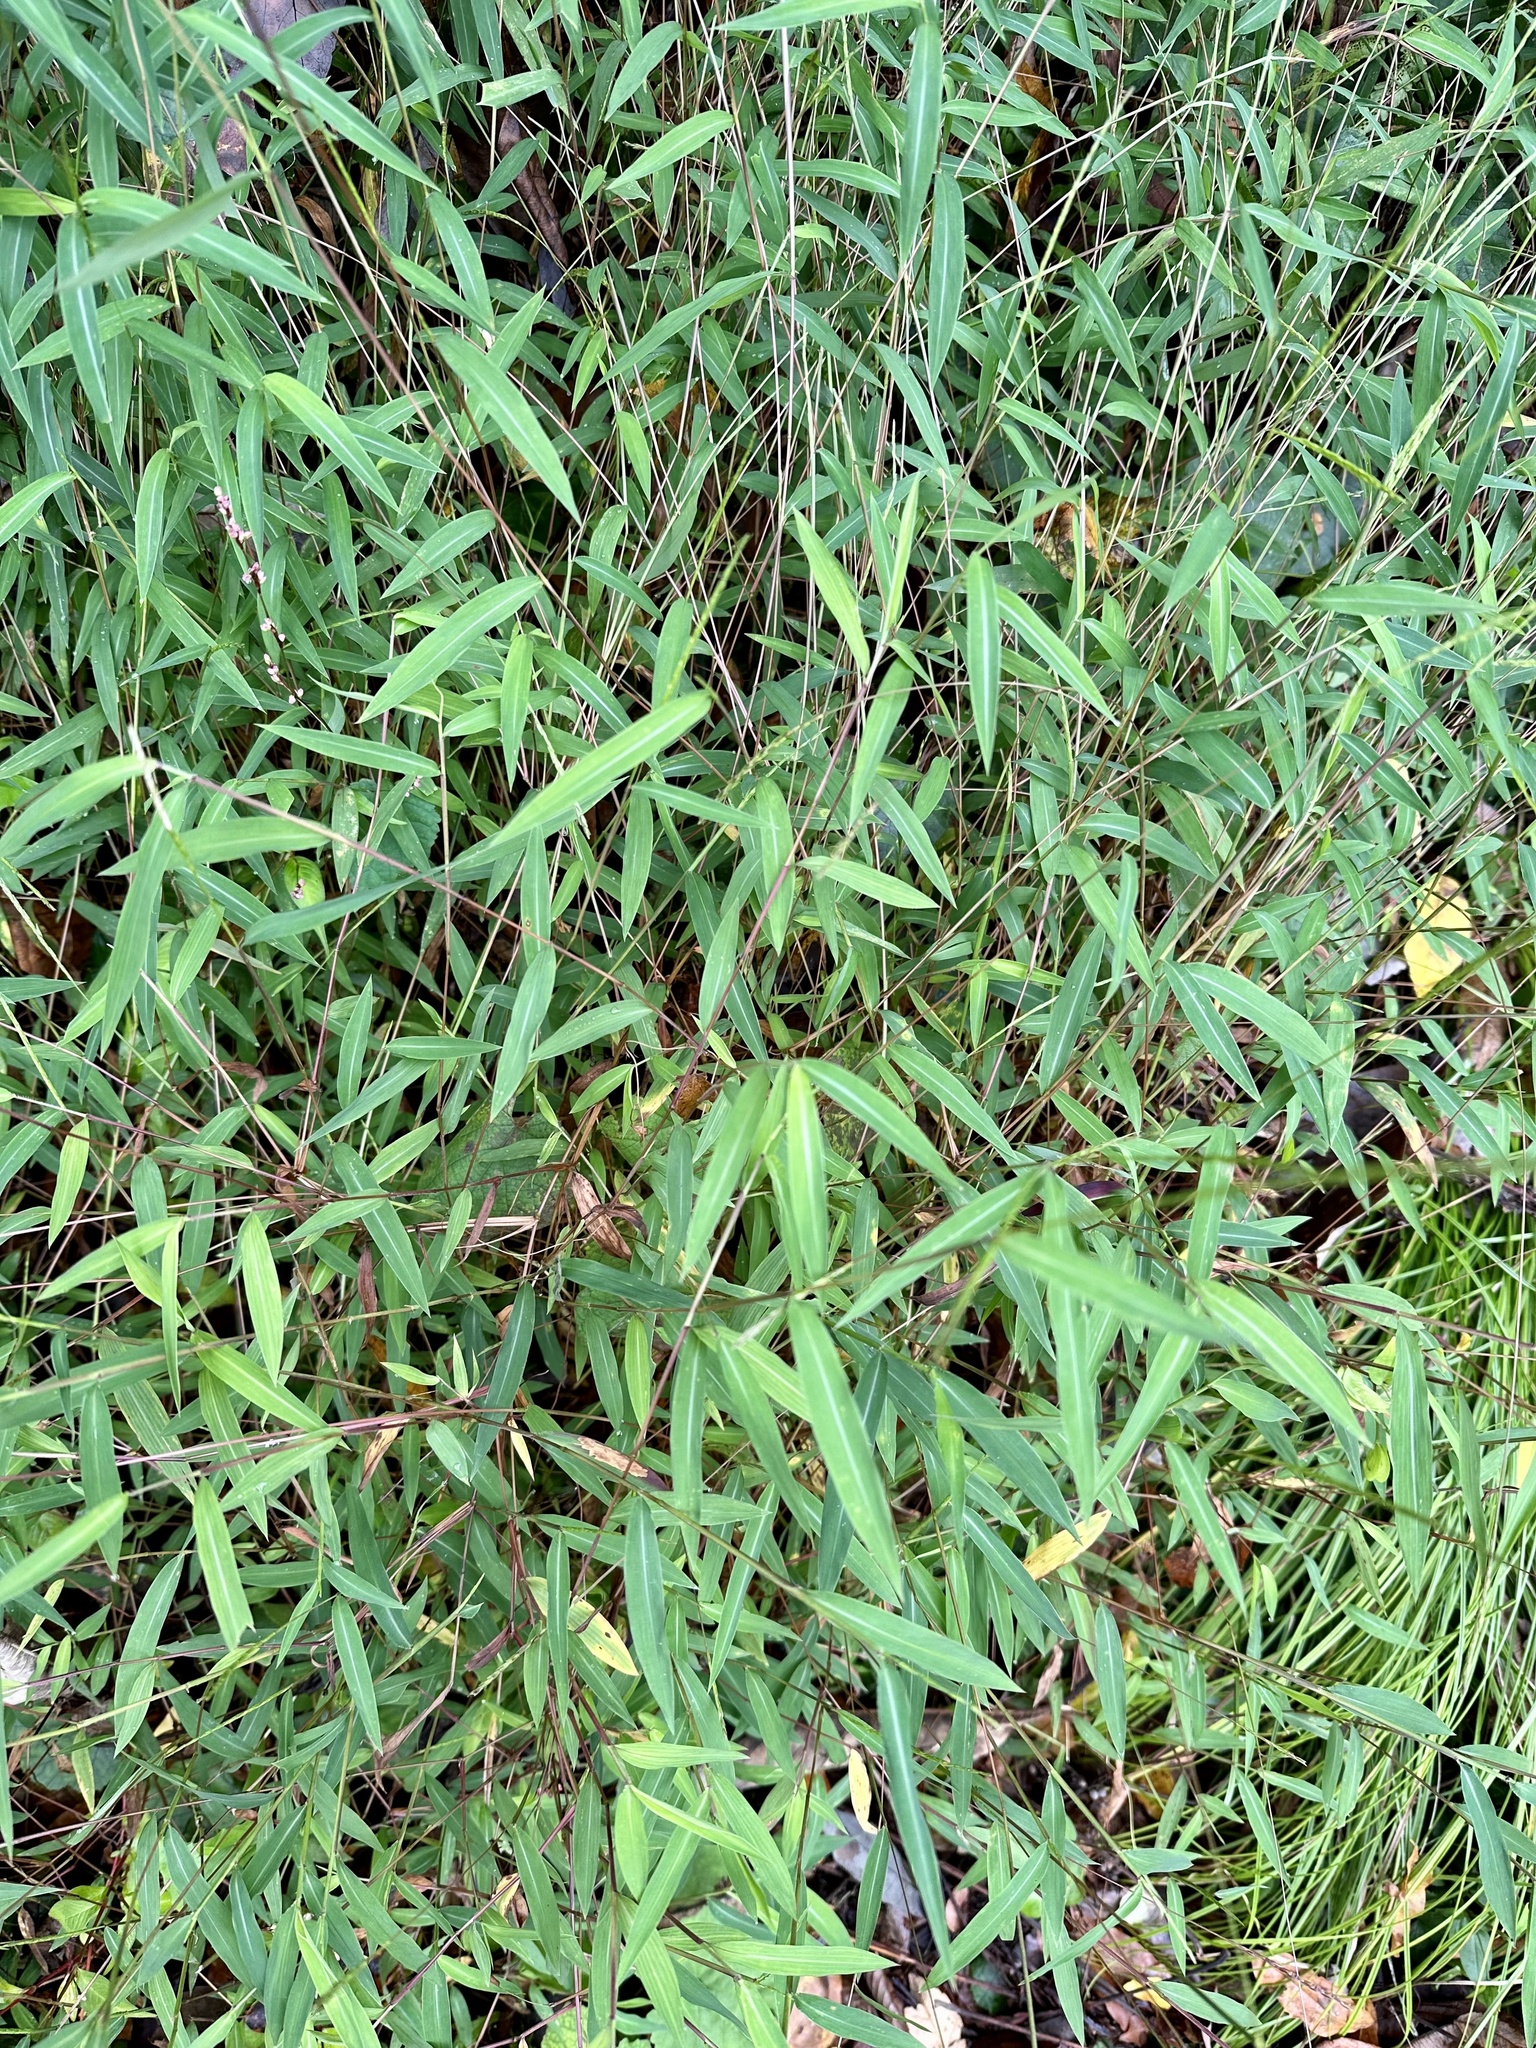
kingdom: Plantae
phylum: Tracheophyta
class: Liliopsida
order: Poales
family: Poaceae
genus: Microstegium
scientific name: Microstegium vimineum
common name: Japanese stiltgrass
